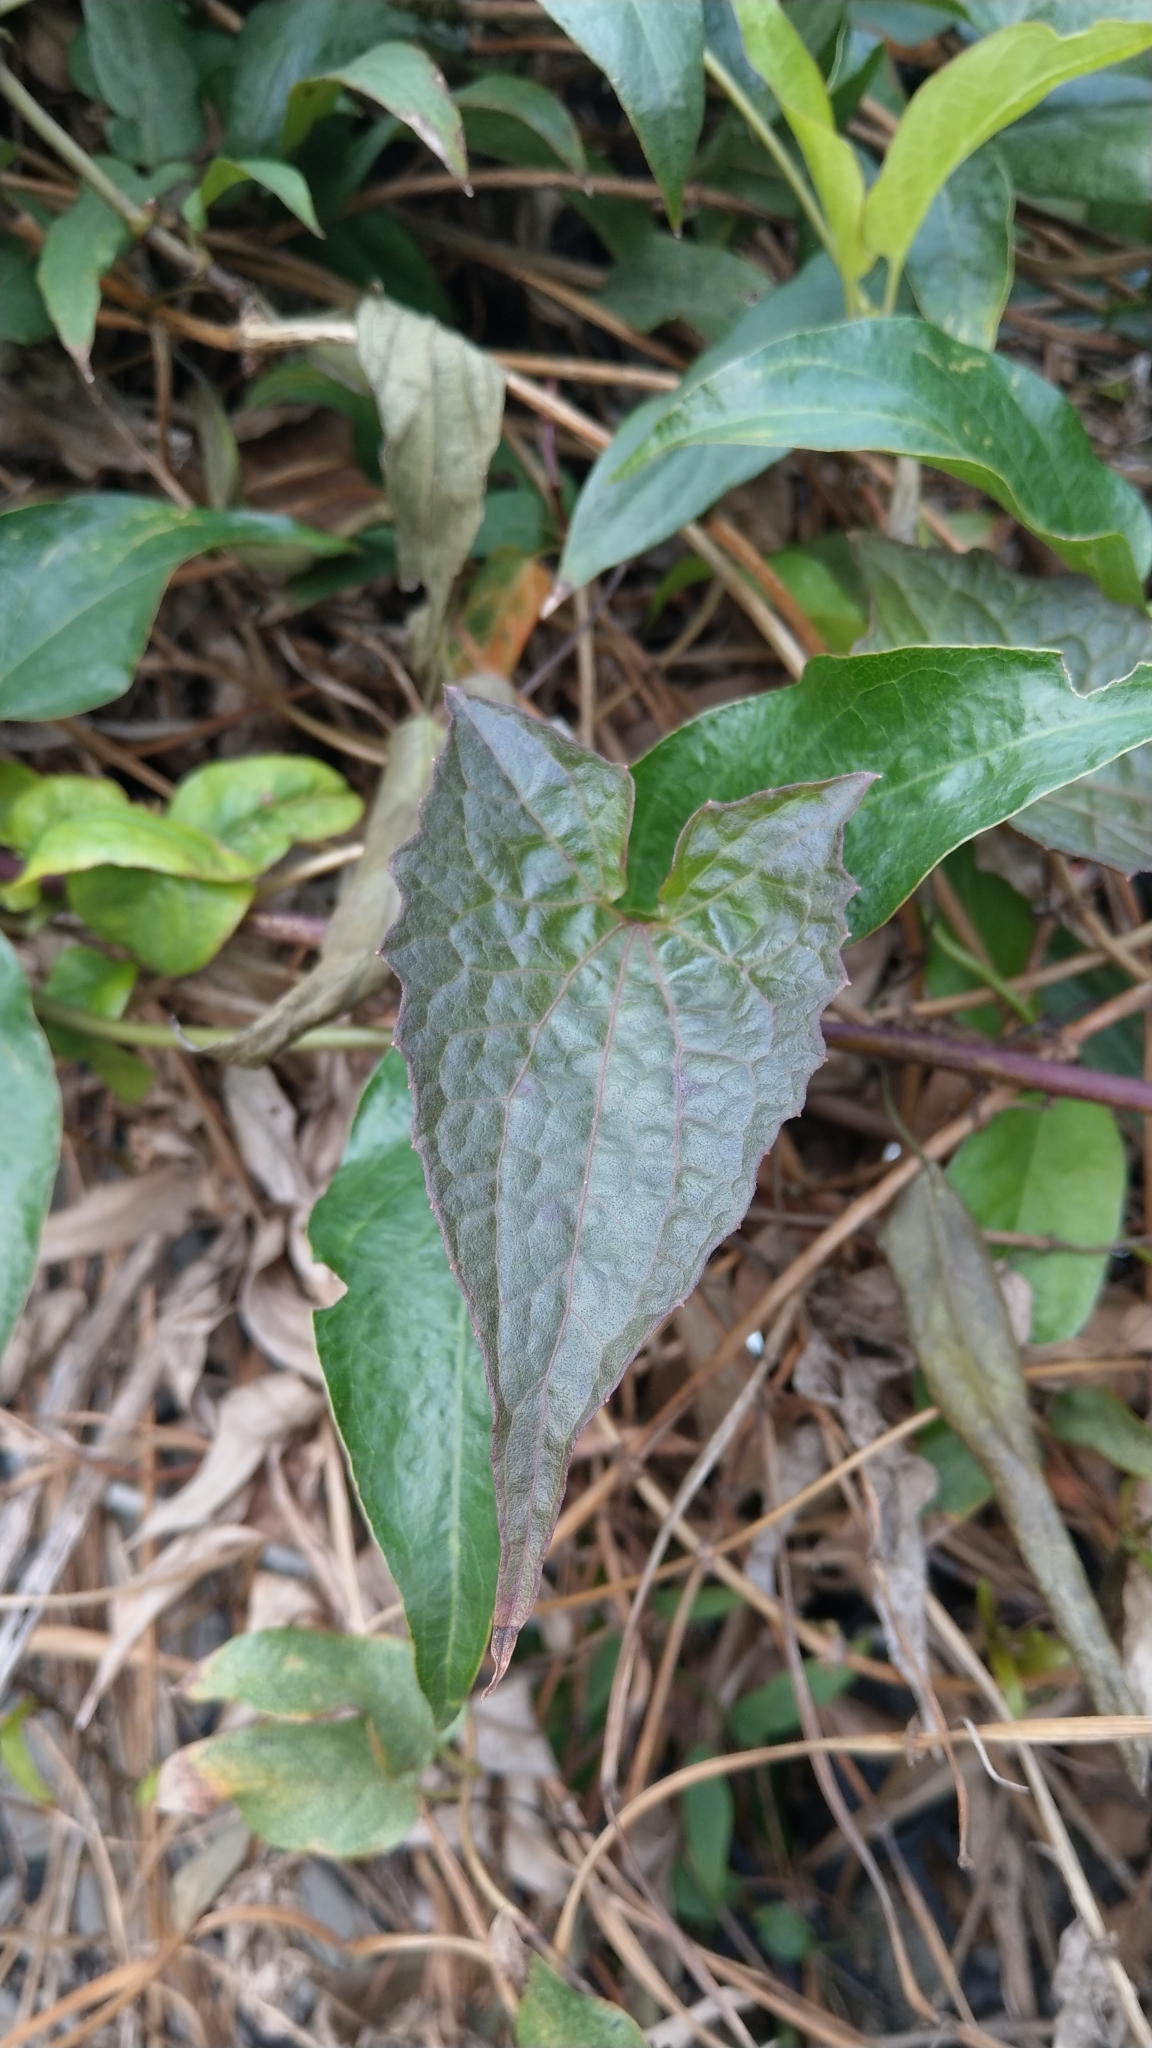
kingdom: Plantae
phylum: Tracheophyta
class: Magnoliopsida
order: Asterales
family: Asteraceae
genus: Mikania
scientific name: Mikania micrantha
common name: Mile-a-minute
